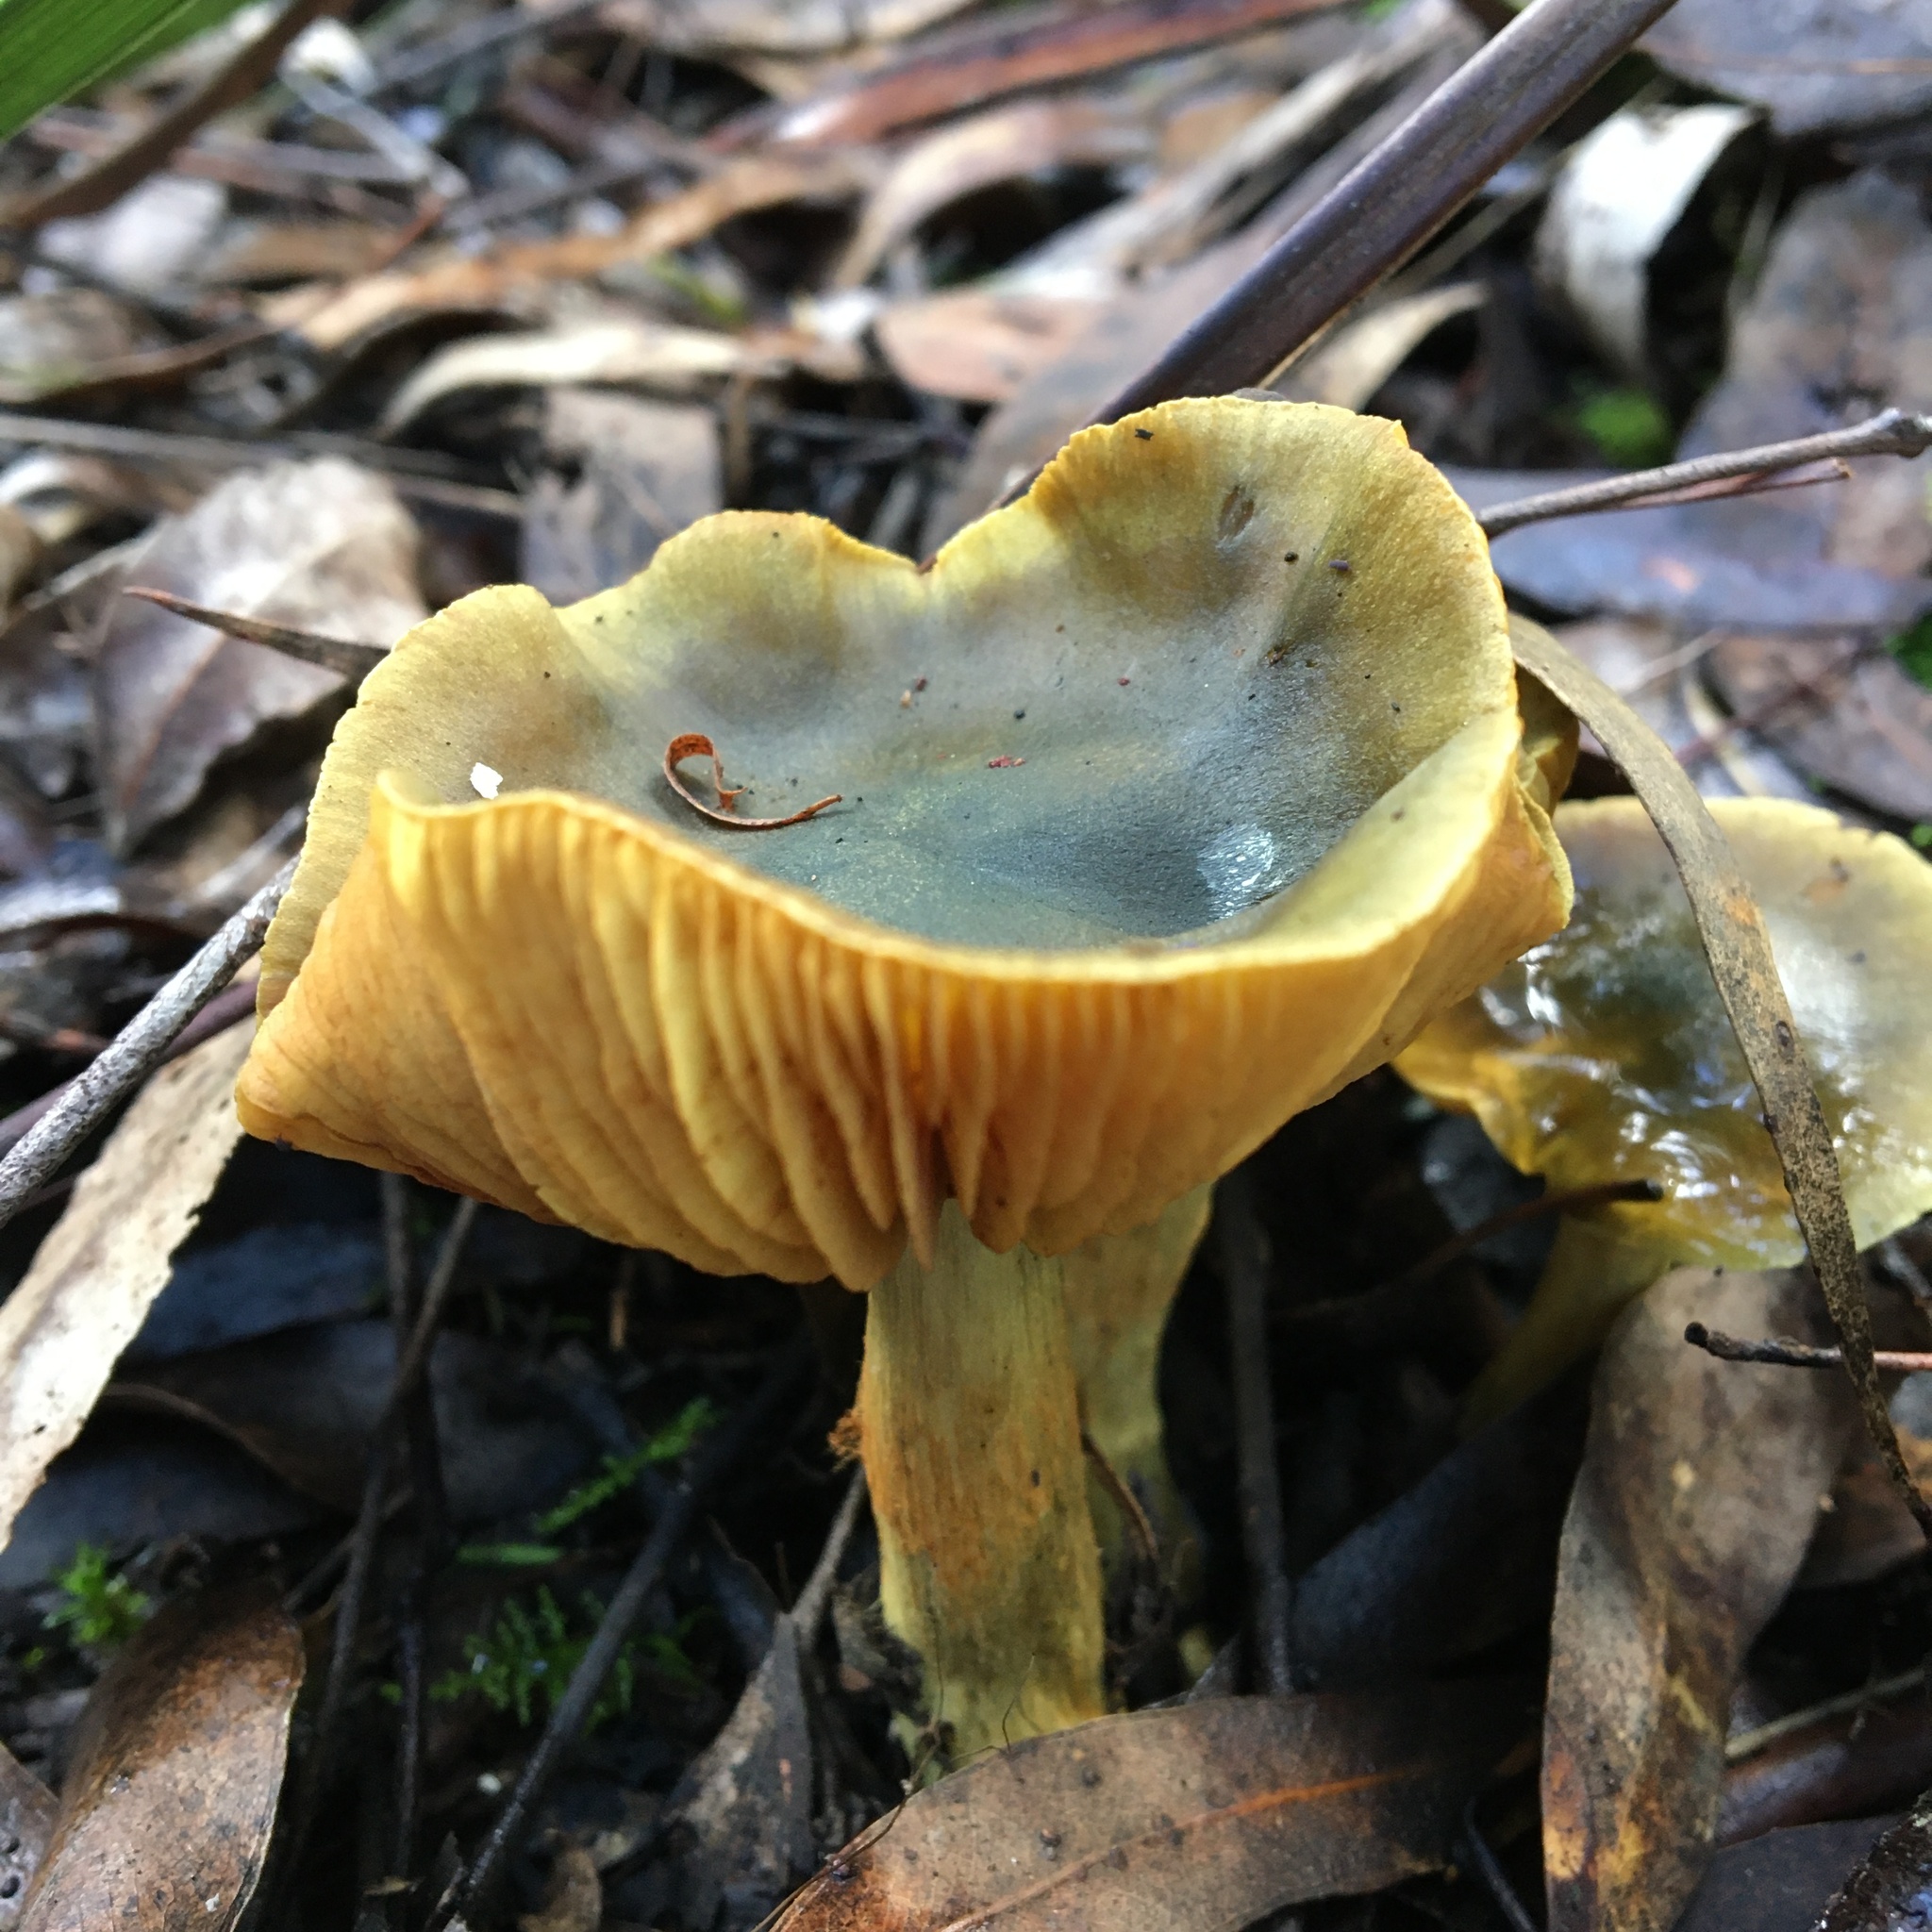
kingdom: Fungi
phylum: Basidiomycota
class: Agaricomycetes
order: Agaricales
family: Cortinariaceae
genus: Cortinarius
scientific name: Cortinarius austrovenetus
